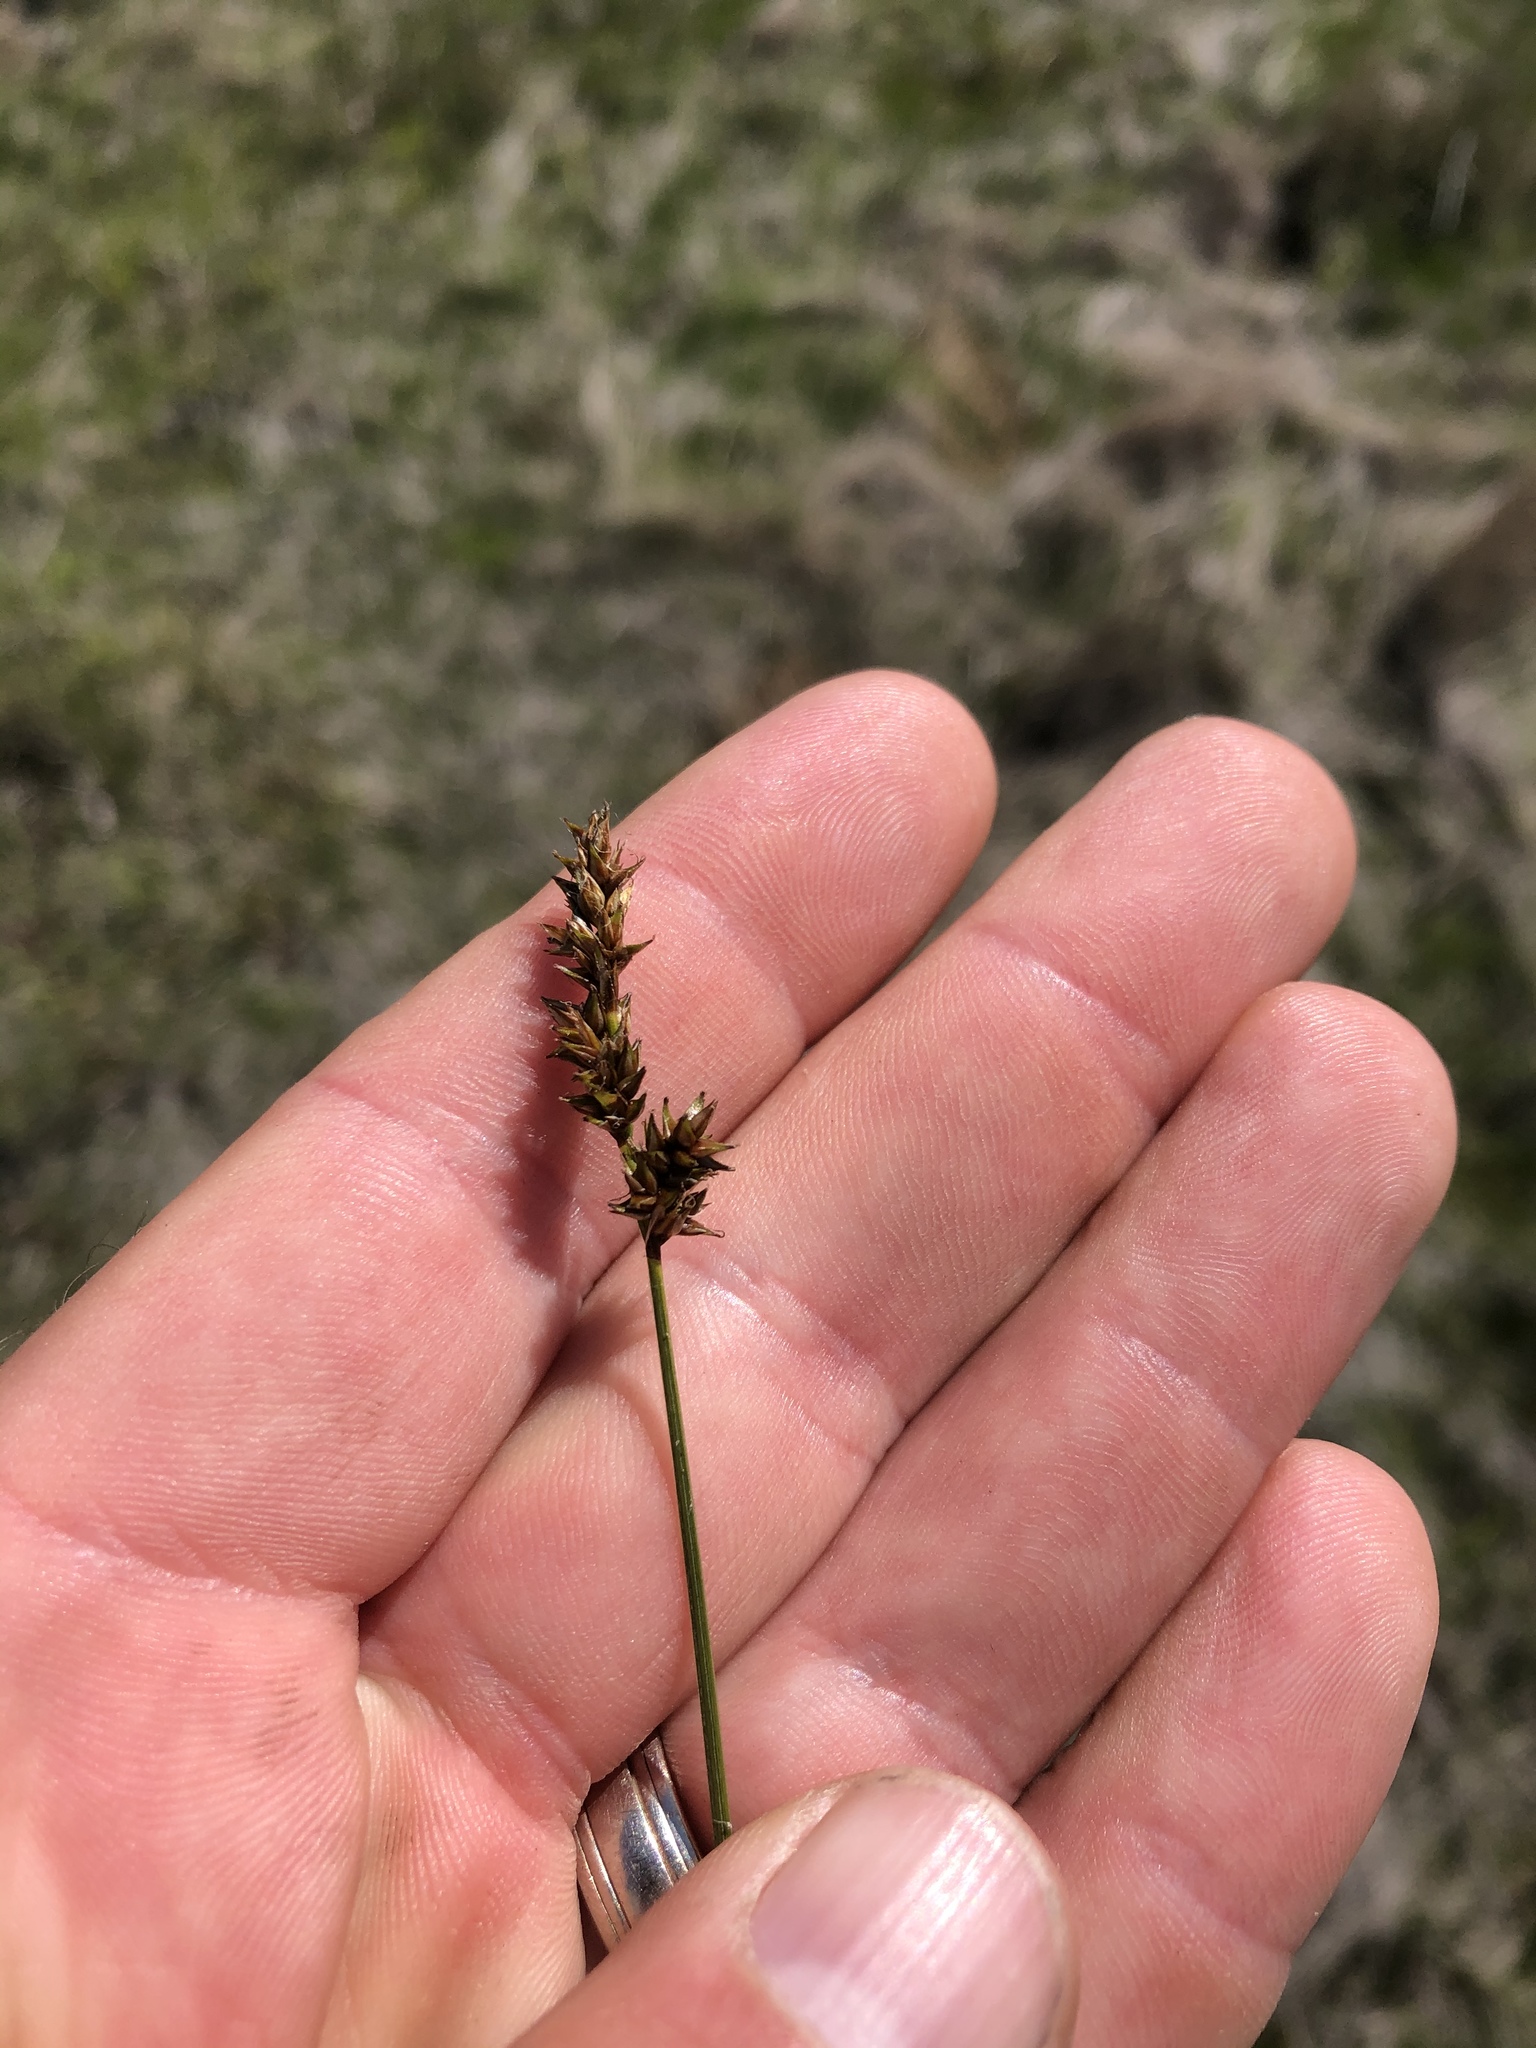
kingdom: Plantae
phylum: Tracheophyta
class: Liliopsida
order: Poales
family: Cyperaceae
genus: Carex
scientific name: Carex diandra
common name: Lesser tussock-sedge
